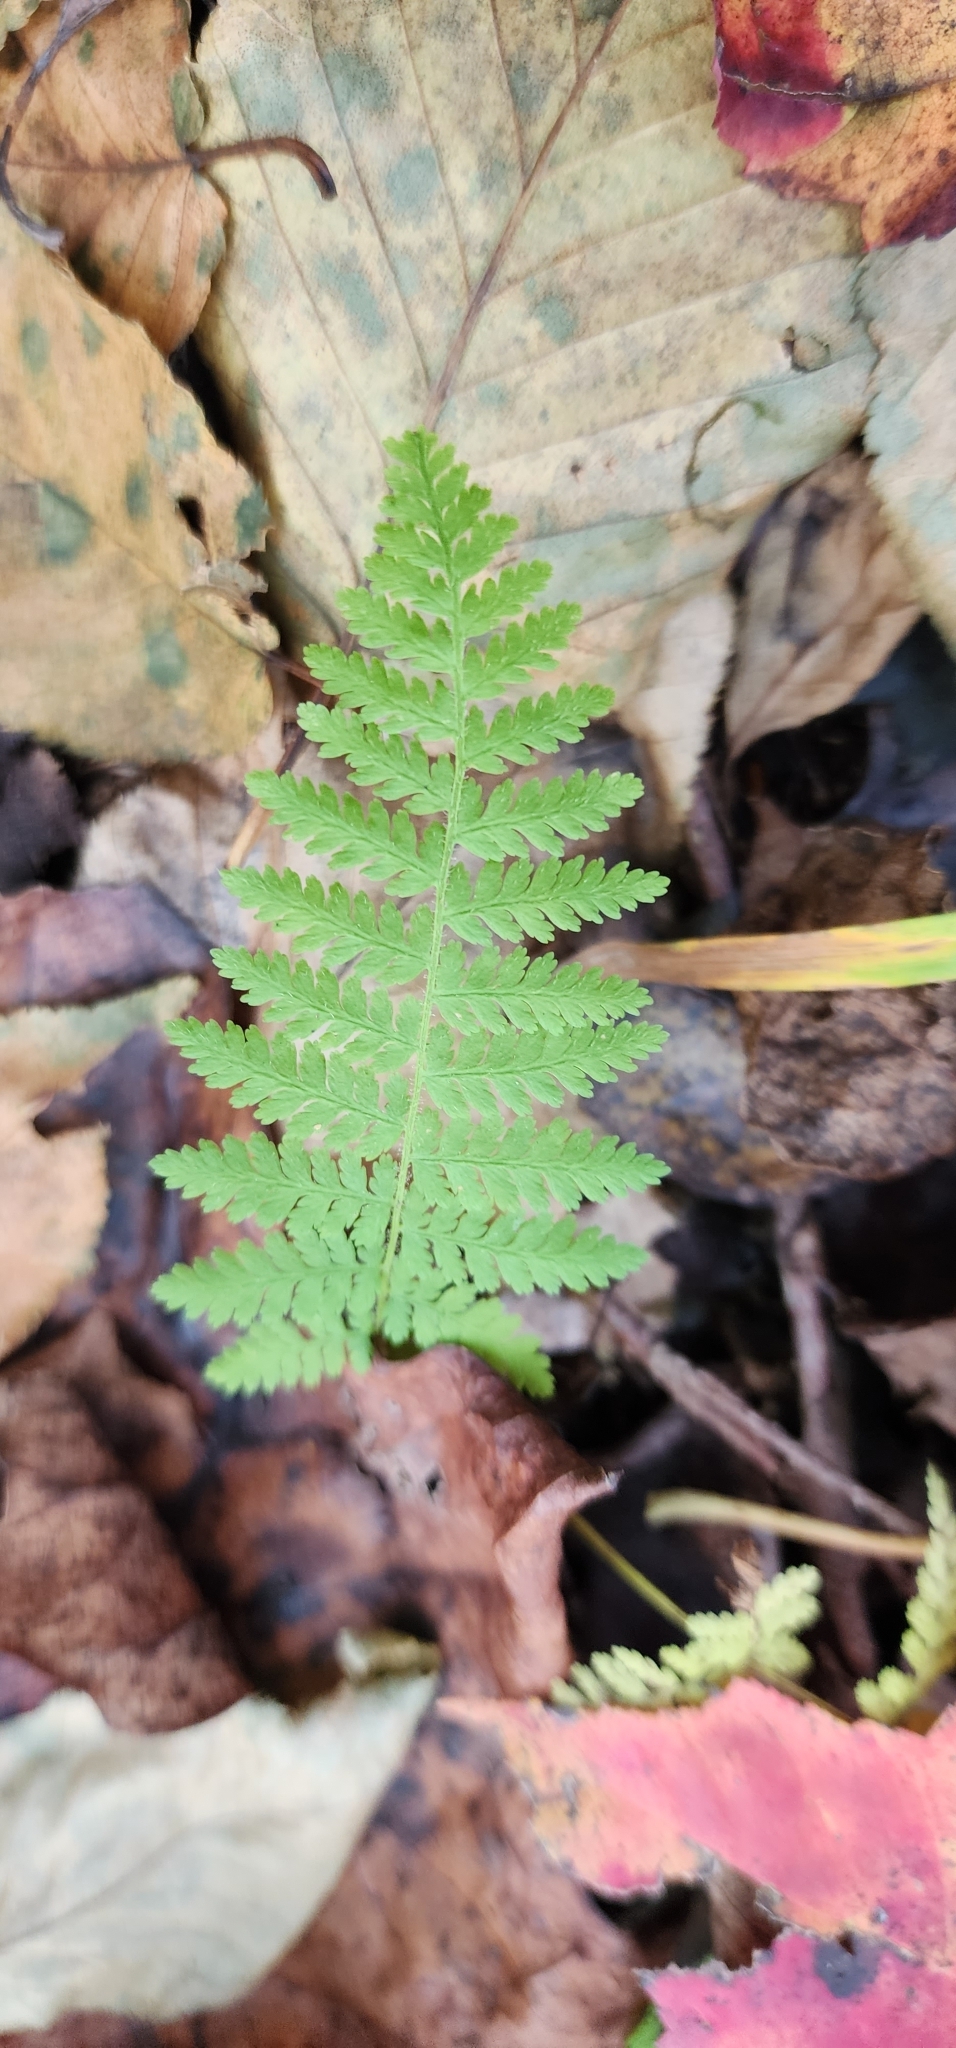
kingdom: Plantae
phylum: Tracheophyta
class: Polypodiopsida
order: Polypodiales
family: Dennstaedtiaceae
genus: Sitobolium
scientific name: Sitobolium punctilobum
